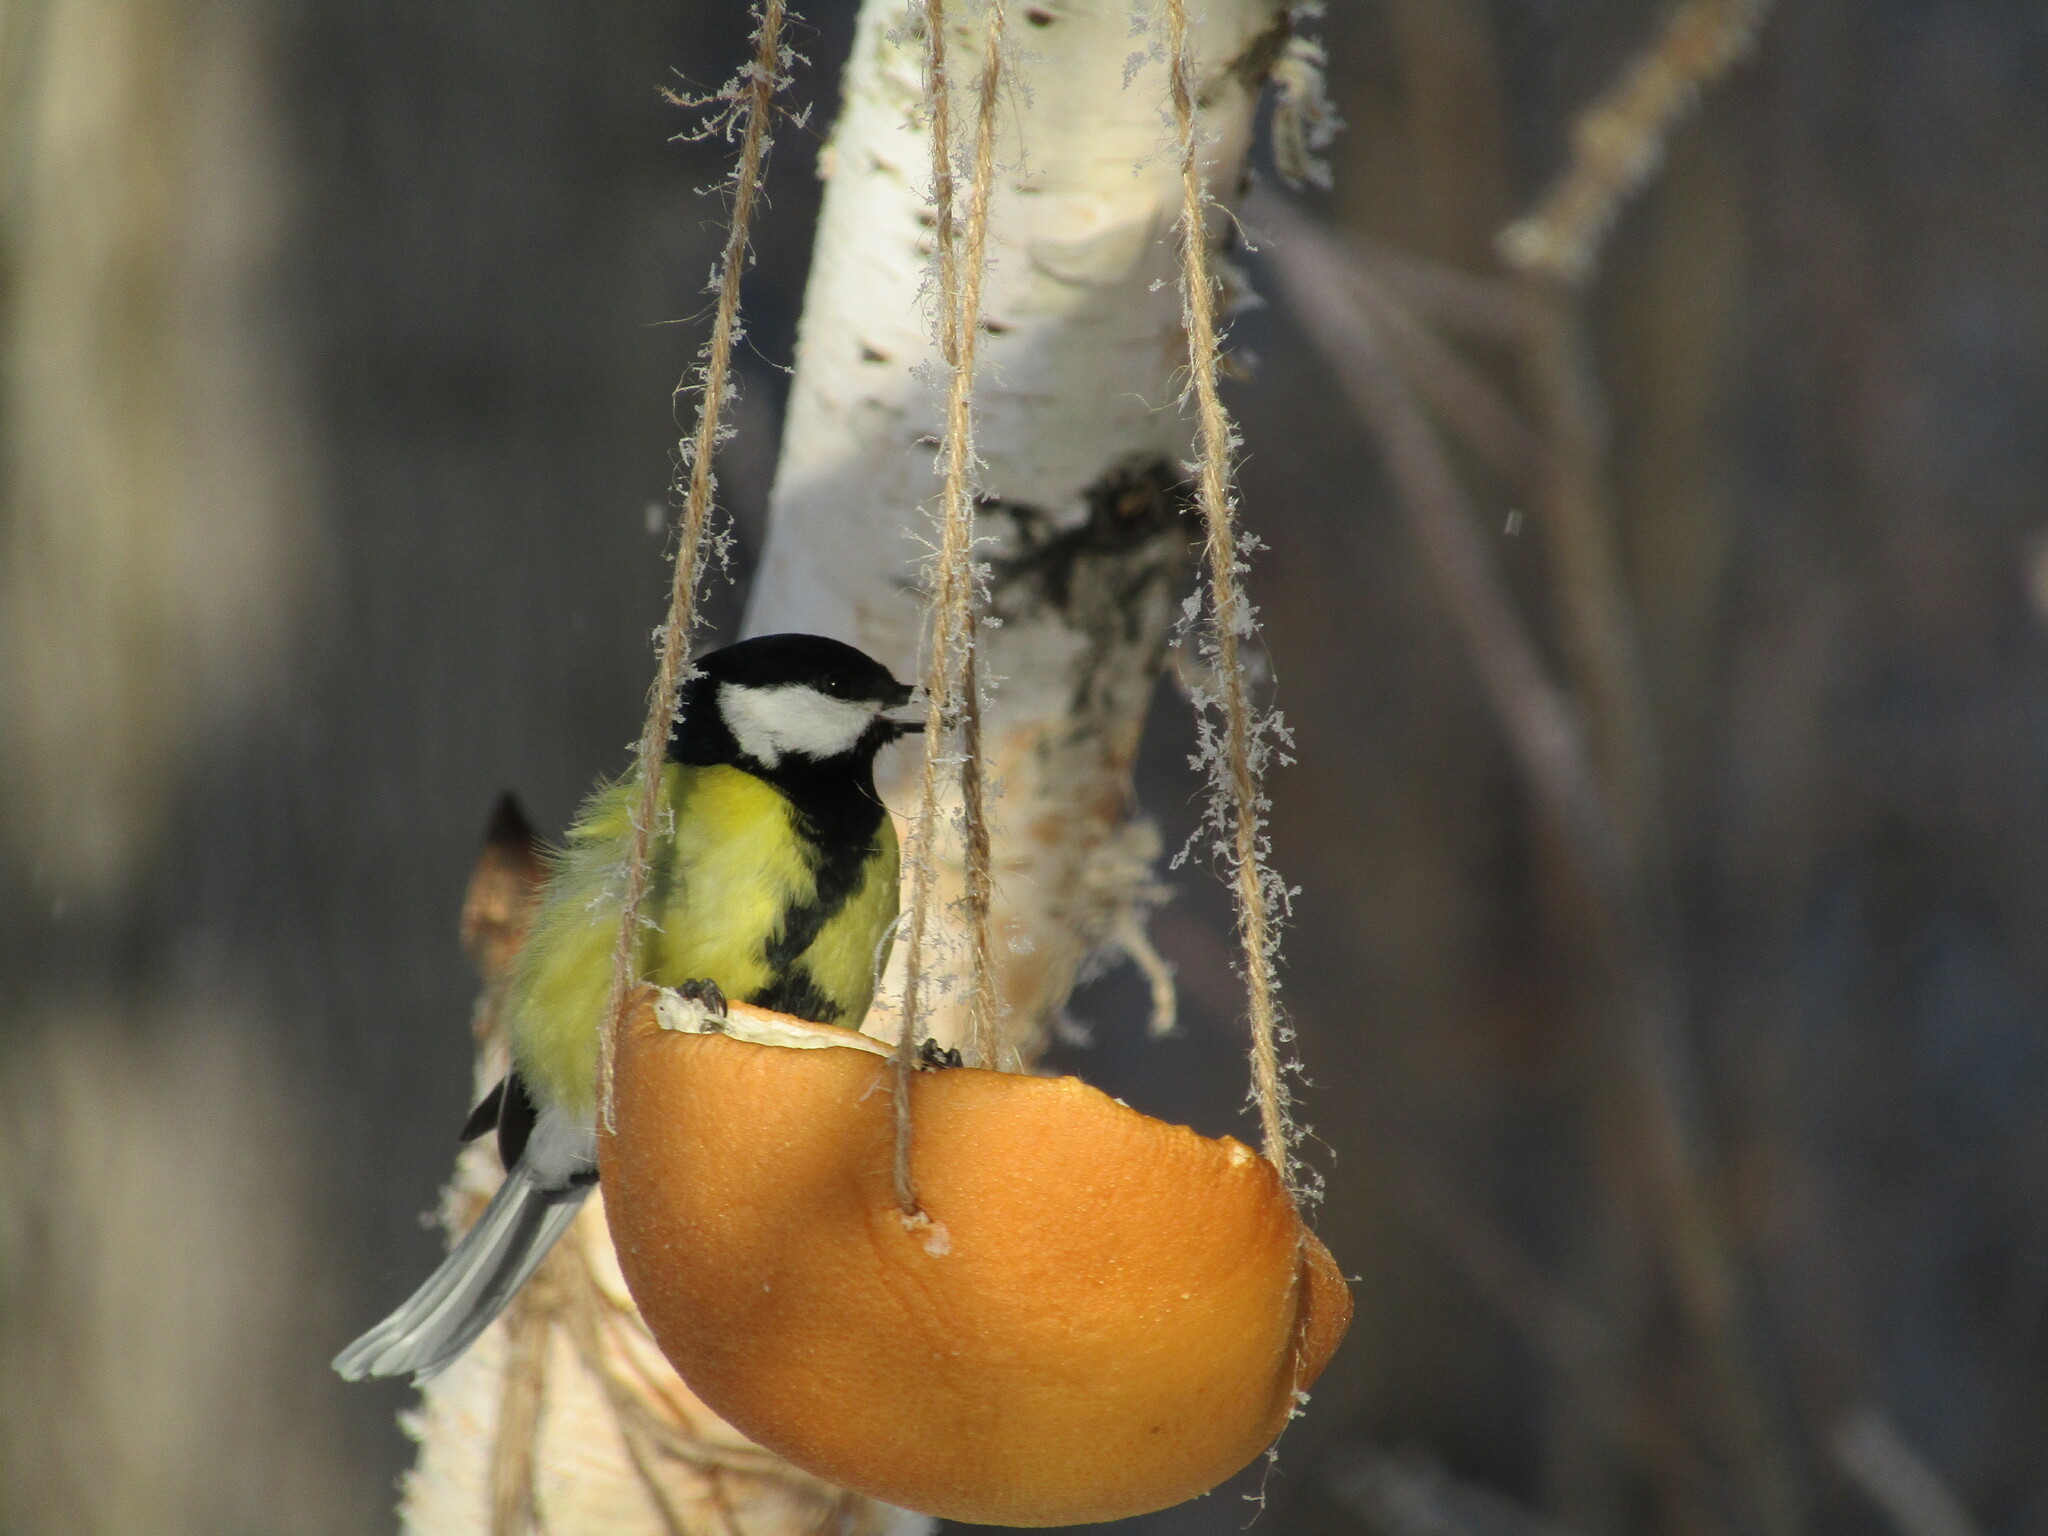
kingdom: Animalia
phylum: Chordata
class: Aves
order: Passeriformes
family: Paridae
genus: Parus
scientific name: Parus major
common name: Great tit
